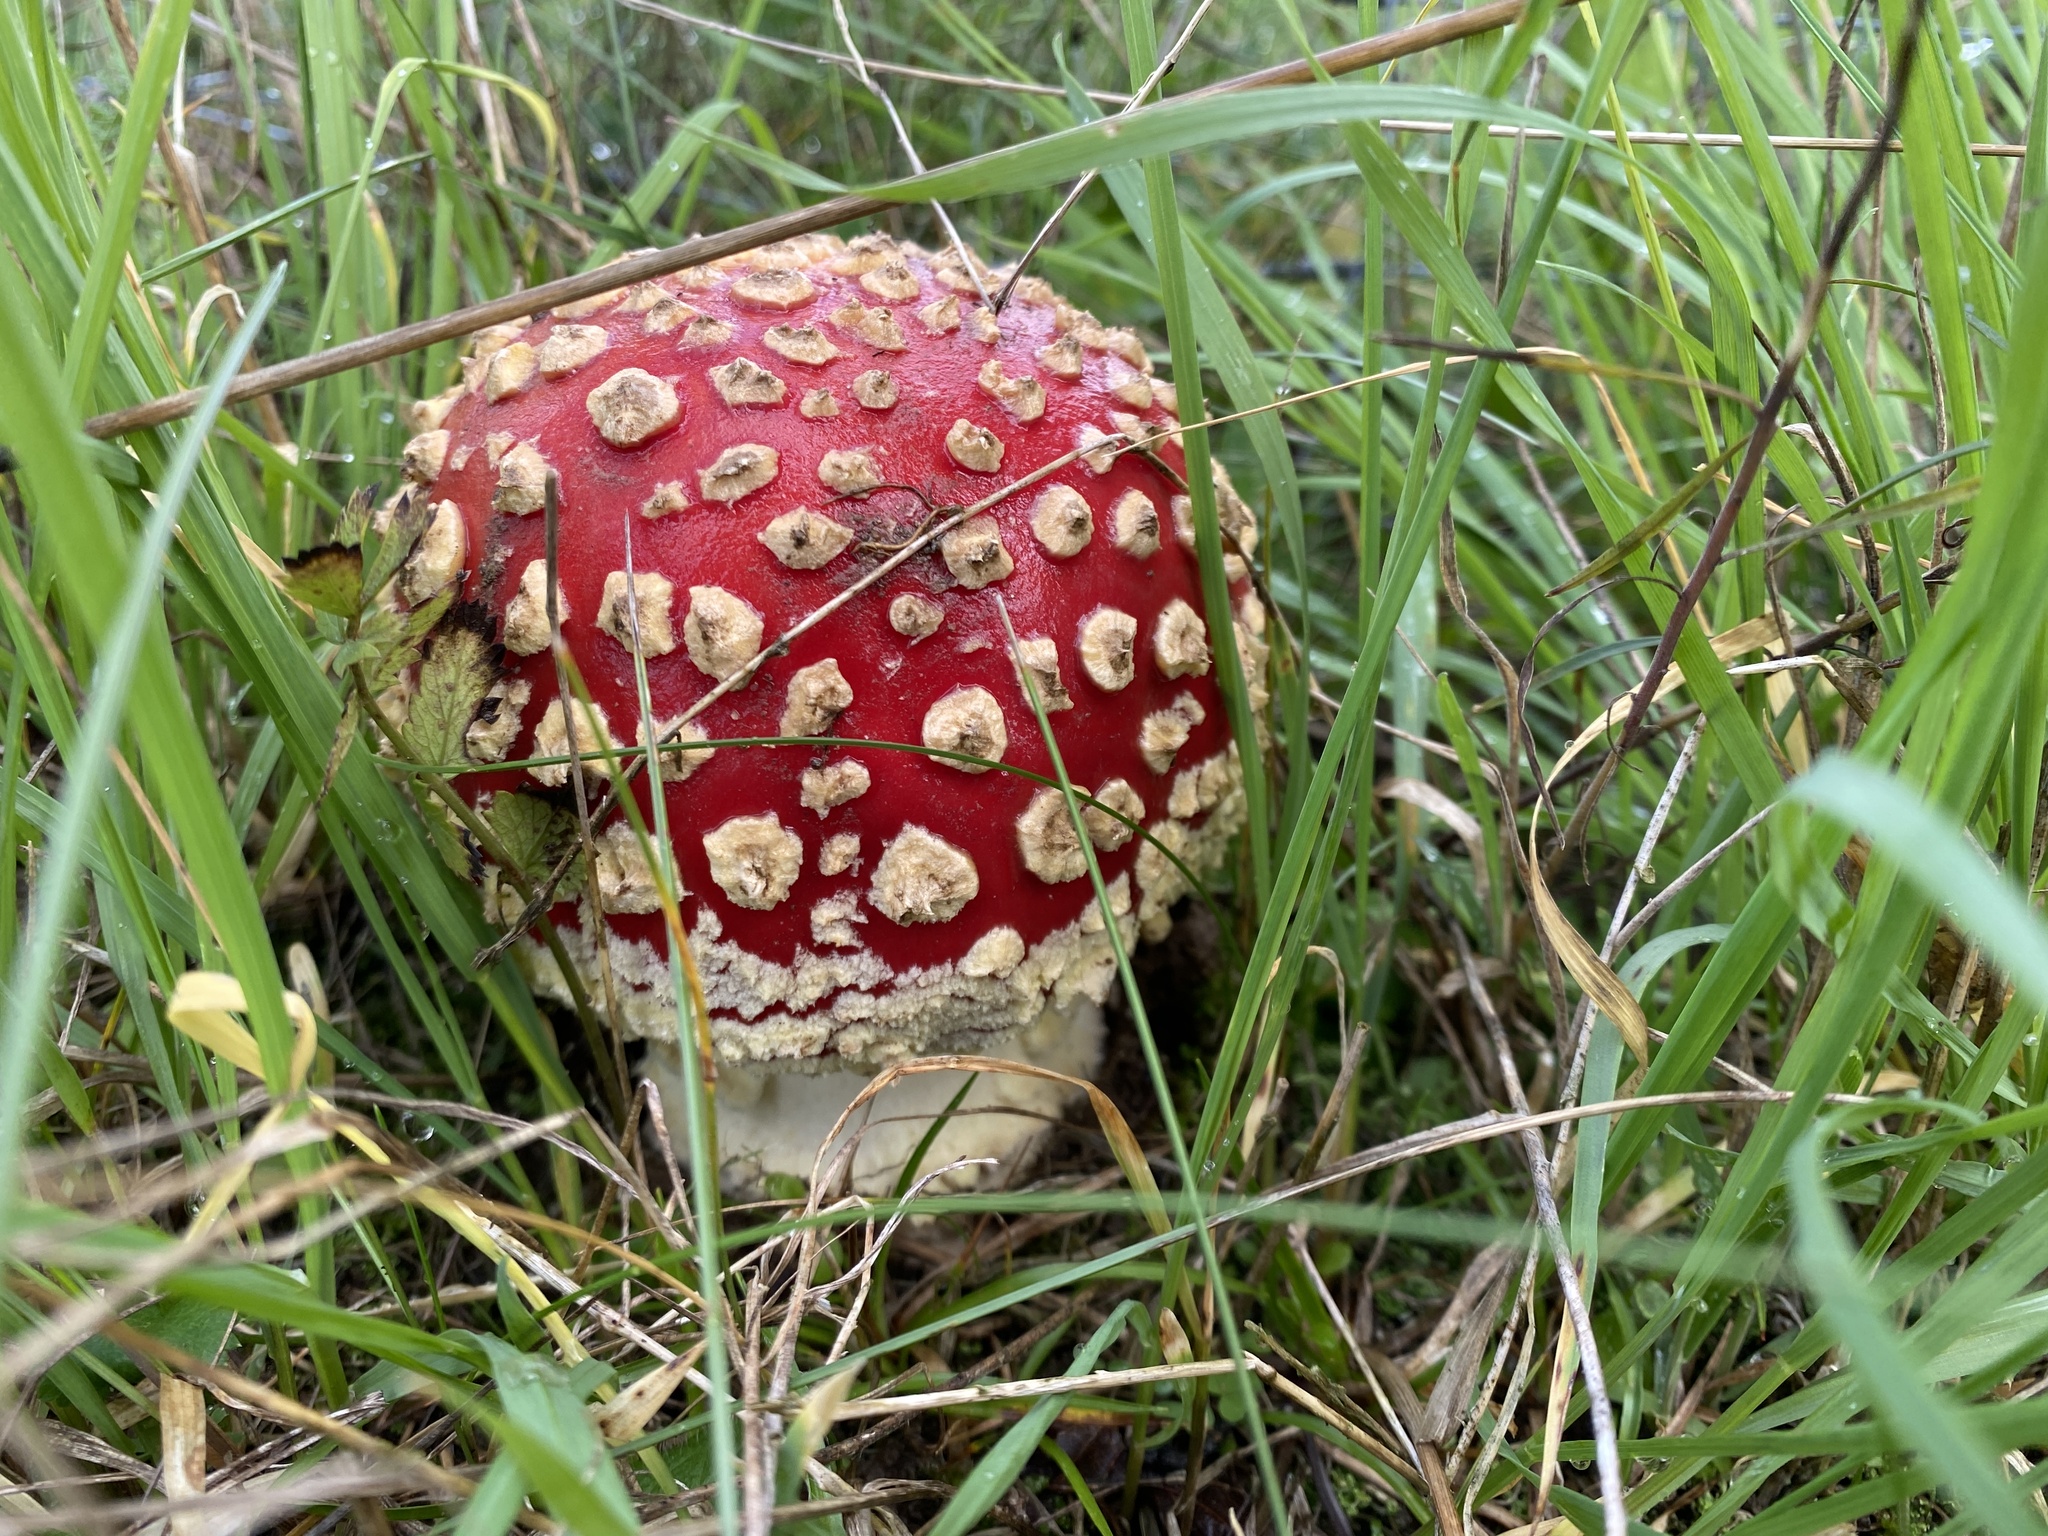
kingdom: Fungi
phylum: Basidiomycota
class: Agaricomycetes
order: Agaricales
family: Amanitaceae
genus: Amanita
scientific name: Amanita muscaria
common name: Fly agaric
